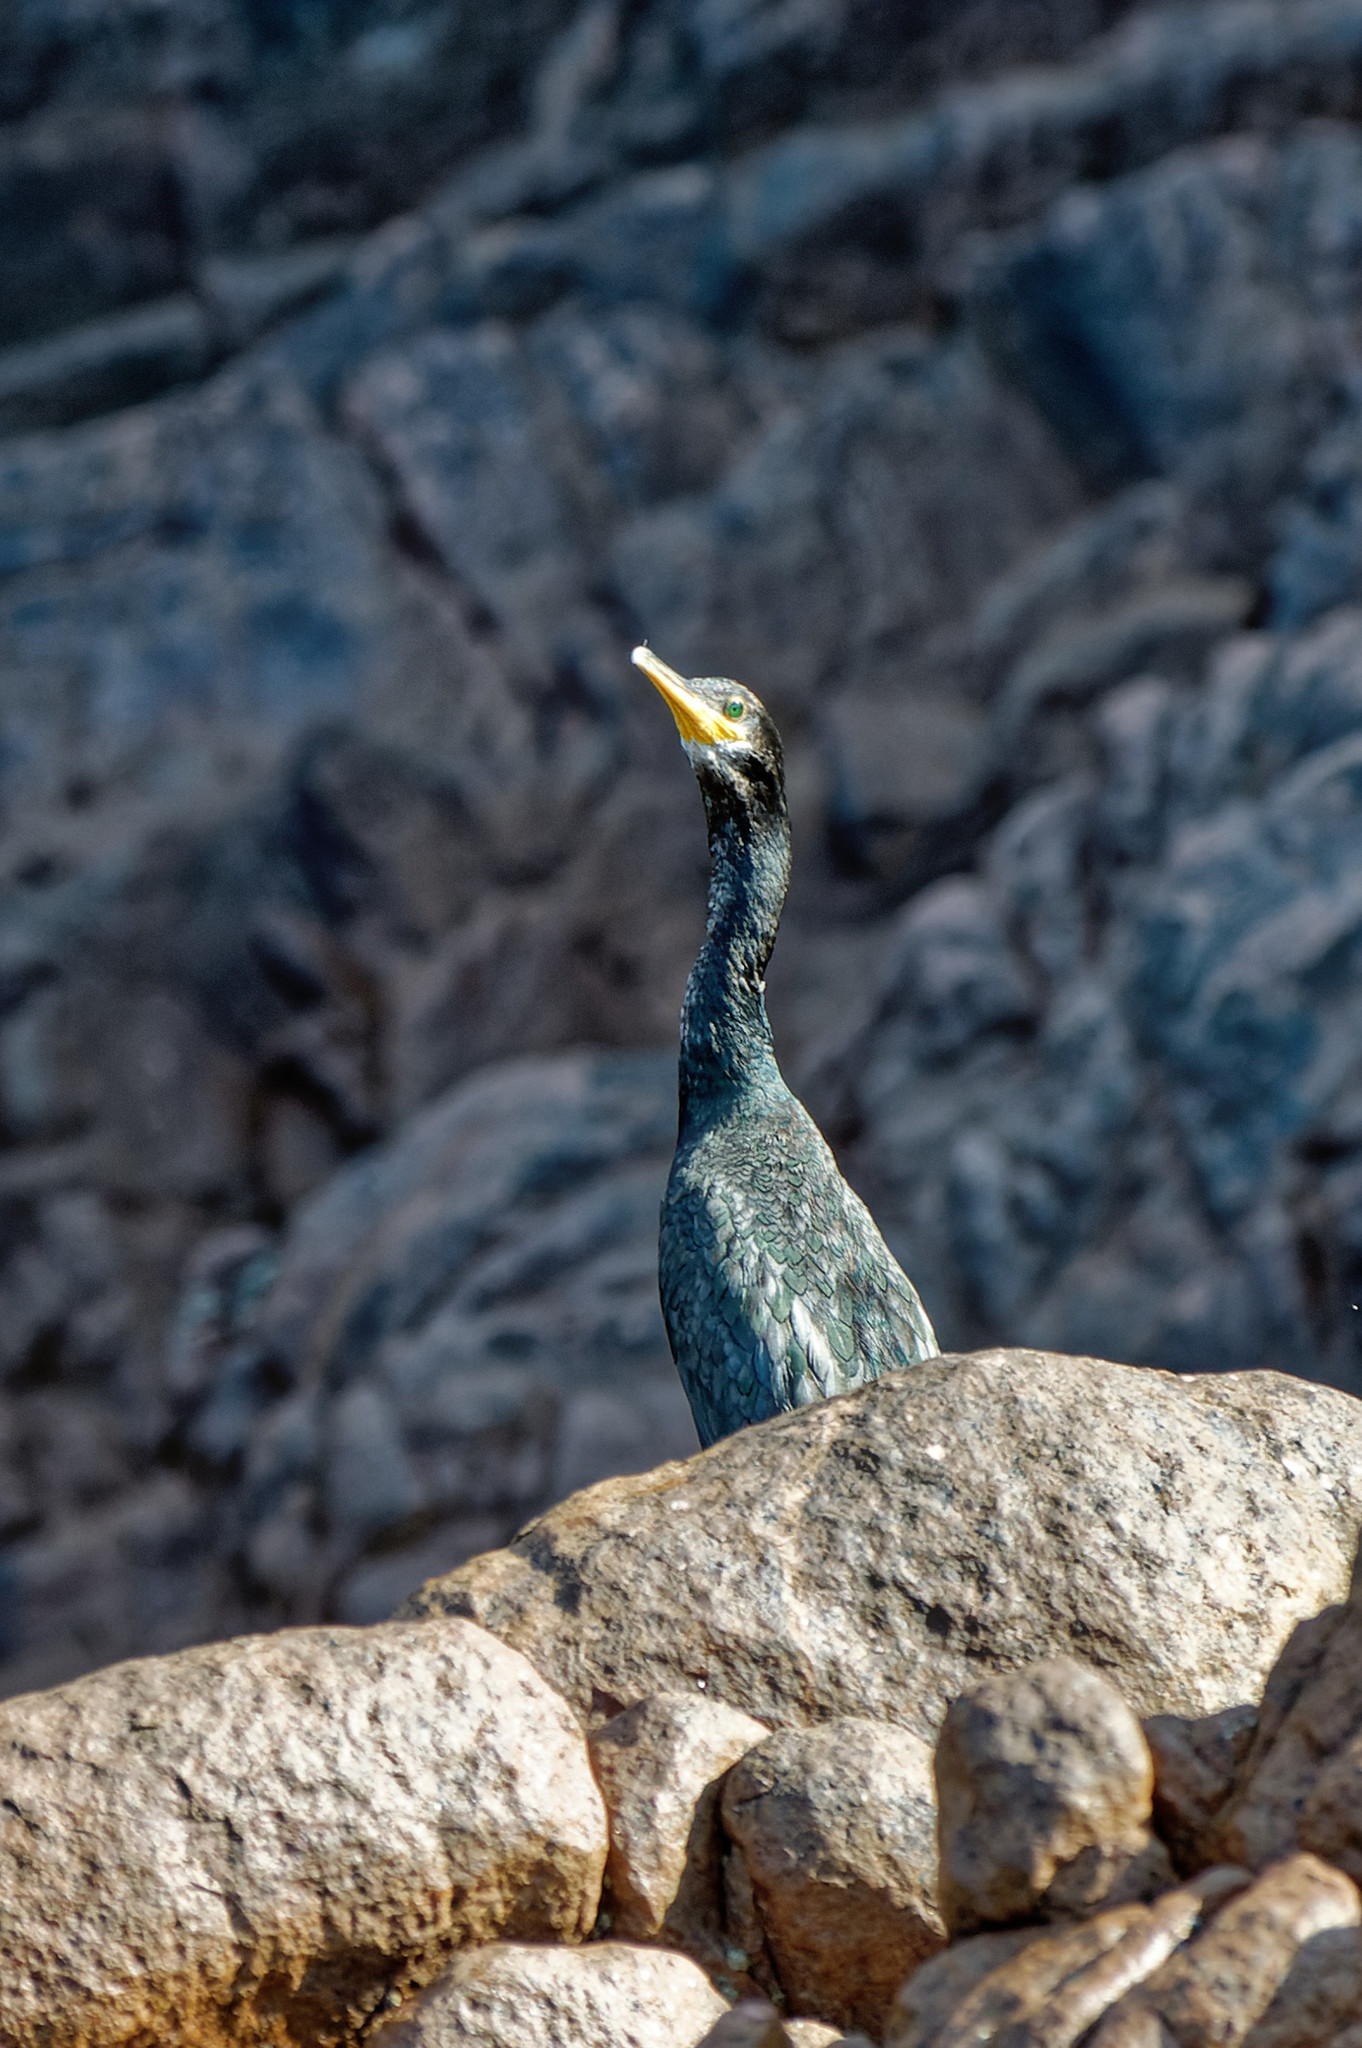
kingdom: Animalia
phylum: Chordata
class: Aves
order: Suliformes
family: Phalacrocoracidae
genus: Phalacrocorax
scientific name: Phalacrocorax aristotelis
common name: European shag
